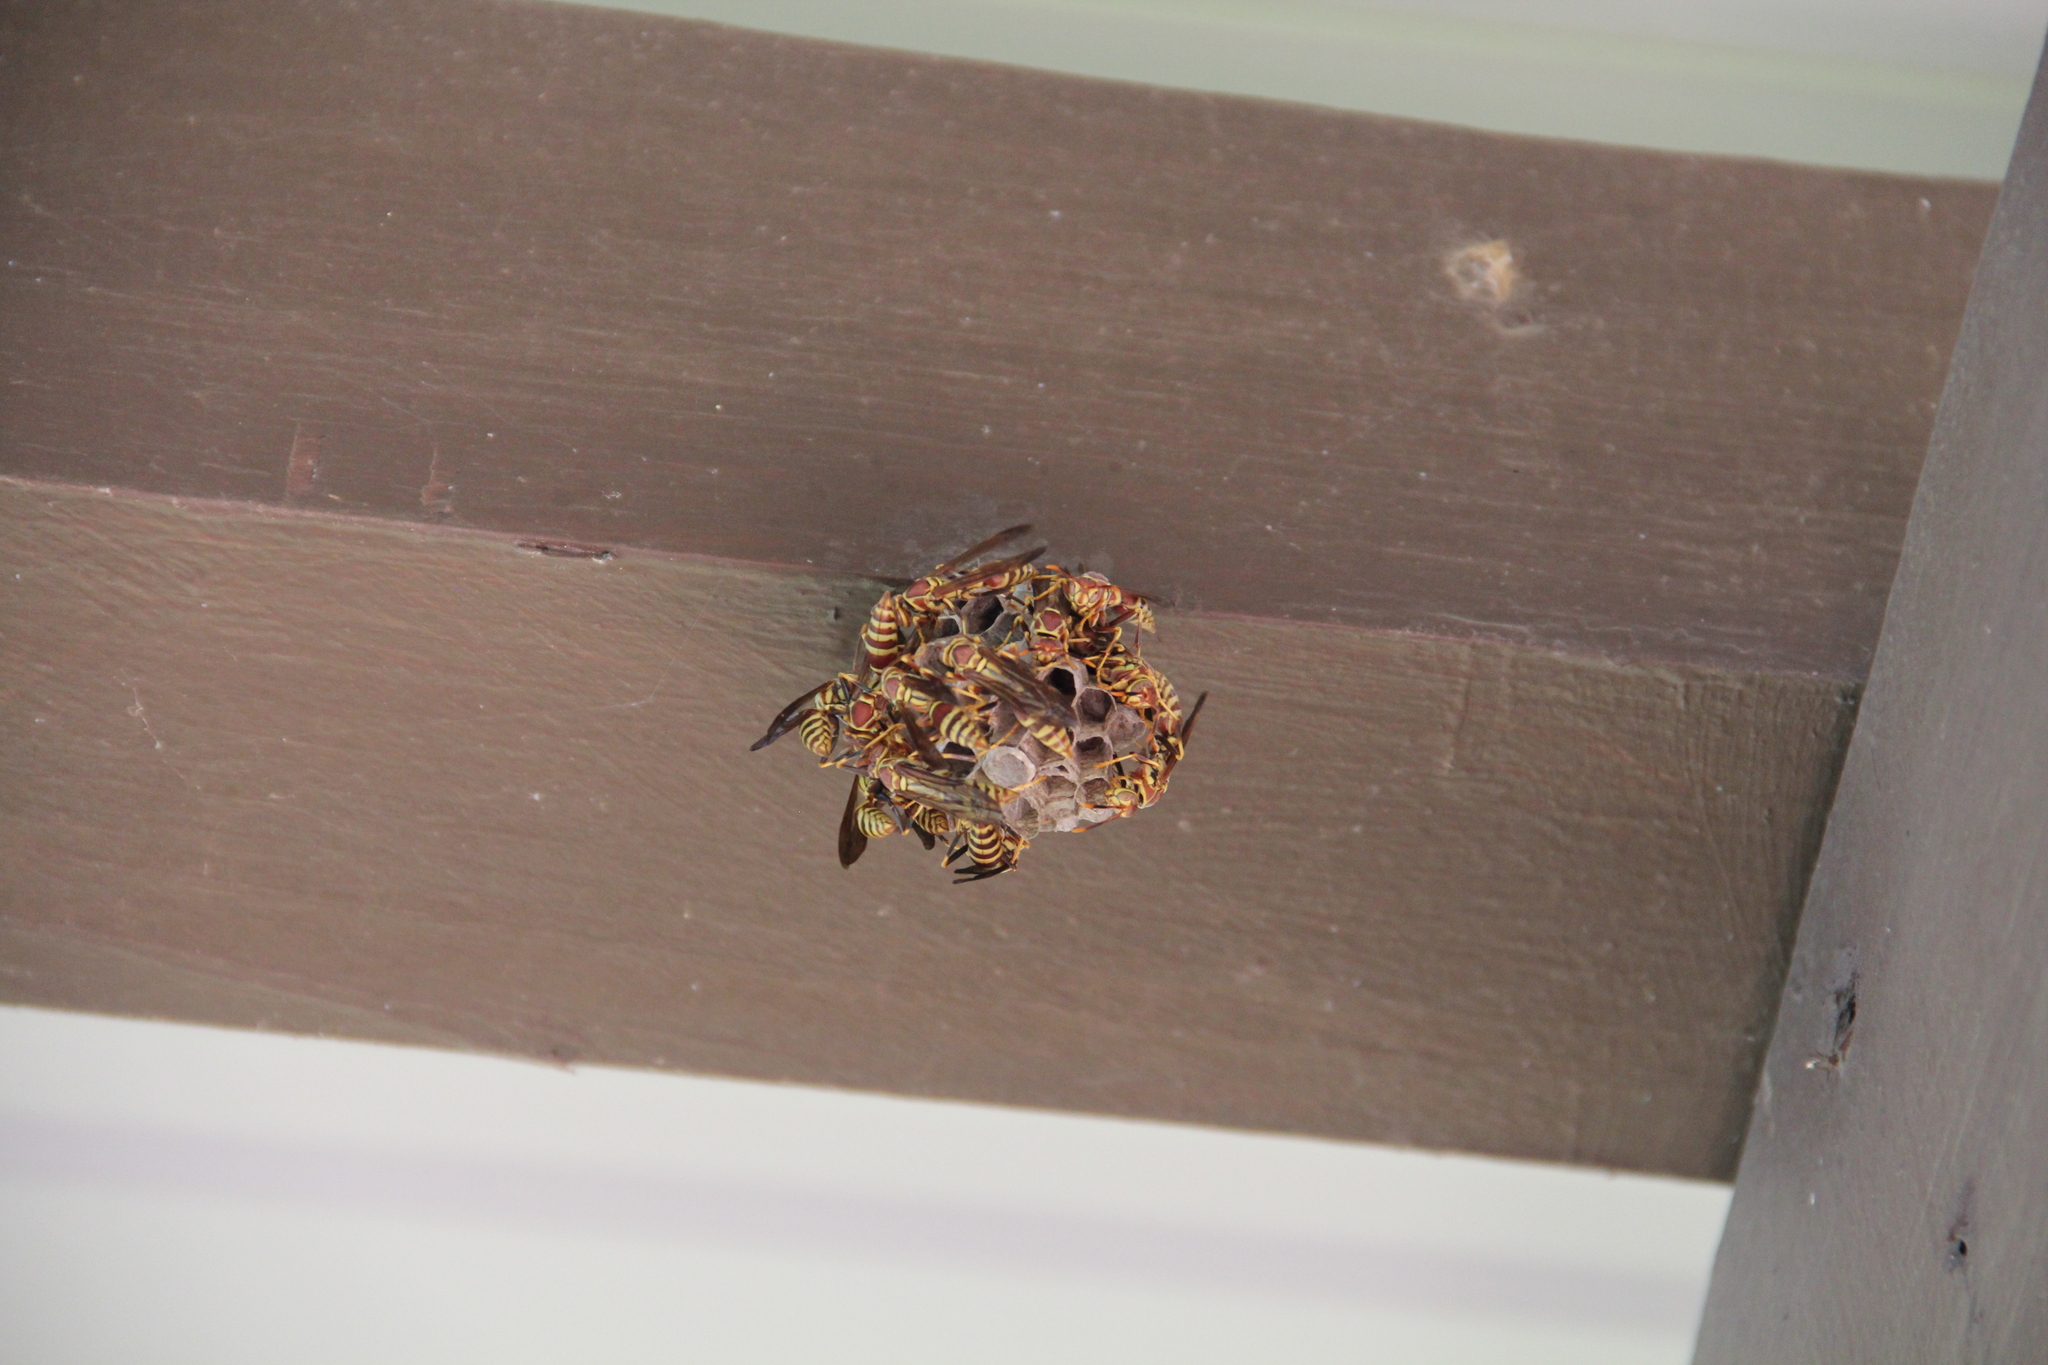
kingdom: Animalia
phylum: Arthropoda
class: Insecta
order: Hymenoptera
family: Eumenidae
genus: Polistes
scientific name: Polistes exclamans
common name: Paper wasp
